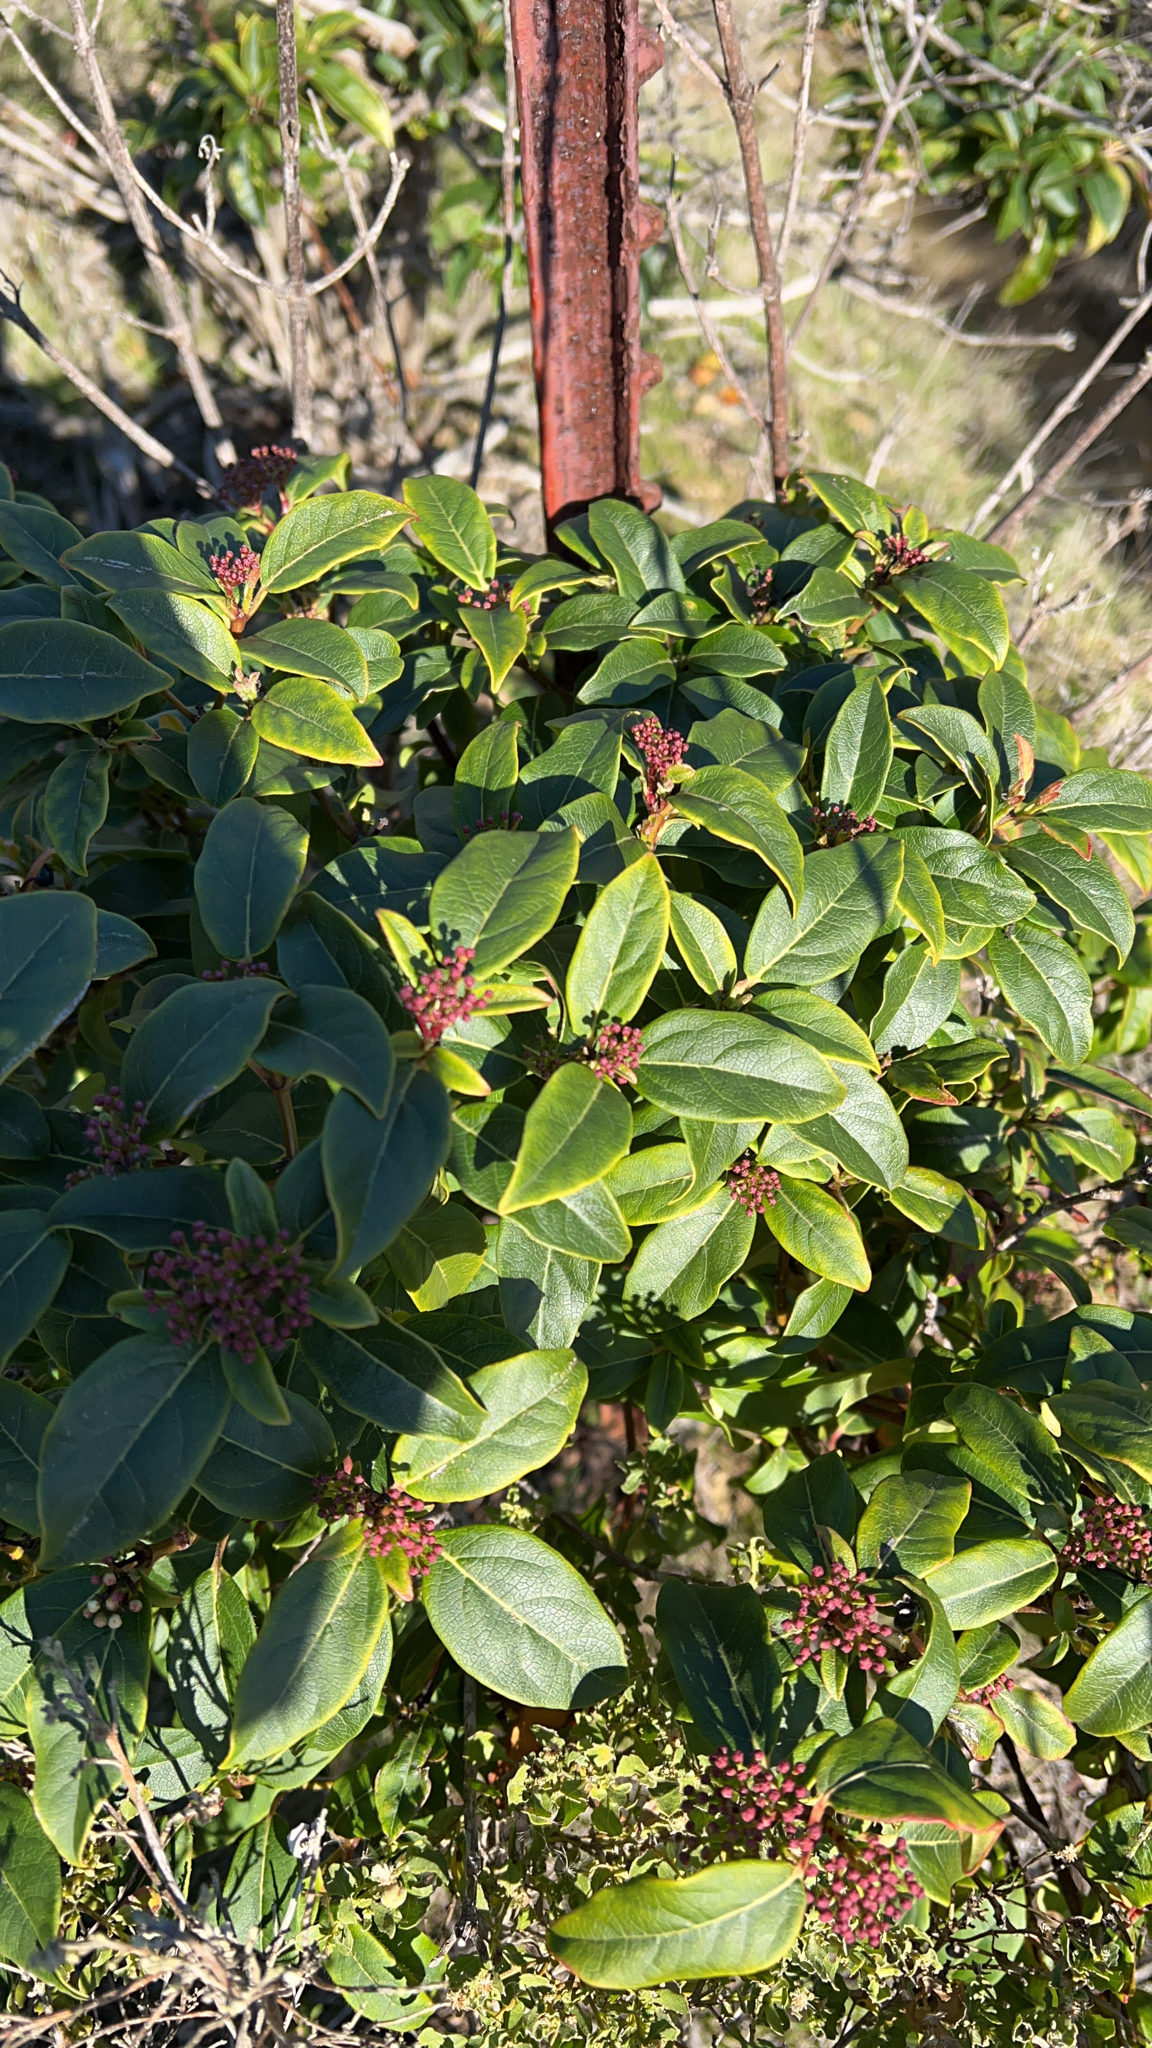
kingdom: Plantae
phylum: Tracheophyta
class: Magnoliopsida
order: Dipsacales
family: Viburnaceae
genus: Viburnum
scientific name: Viburnum tinus
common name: Laurustinus
